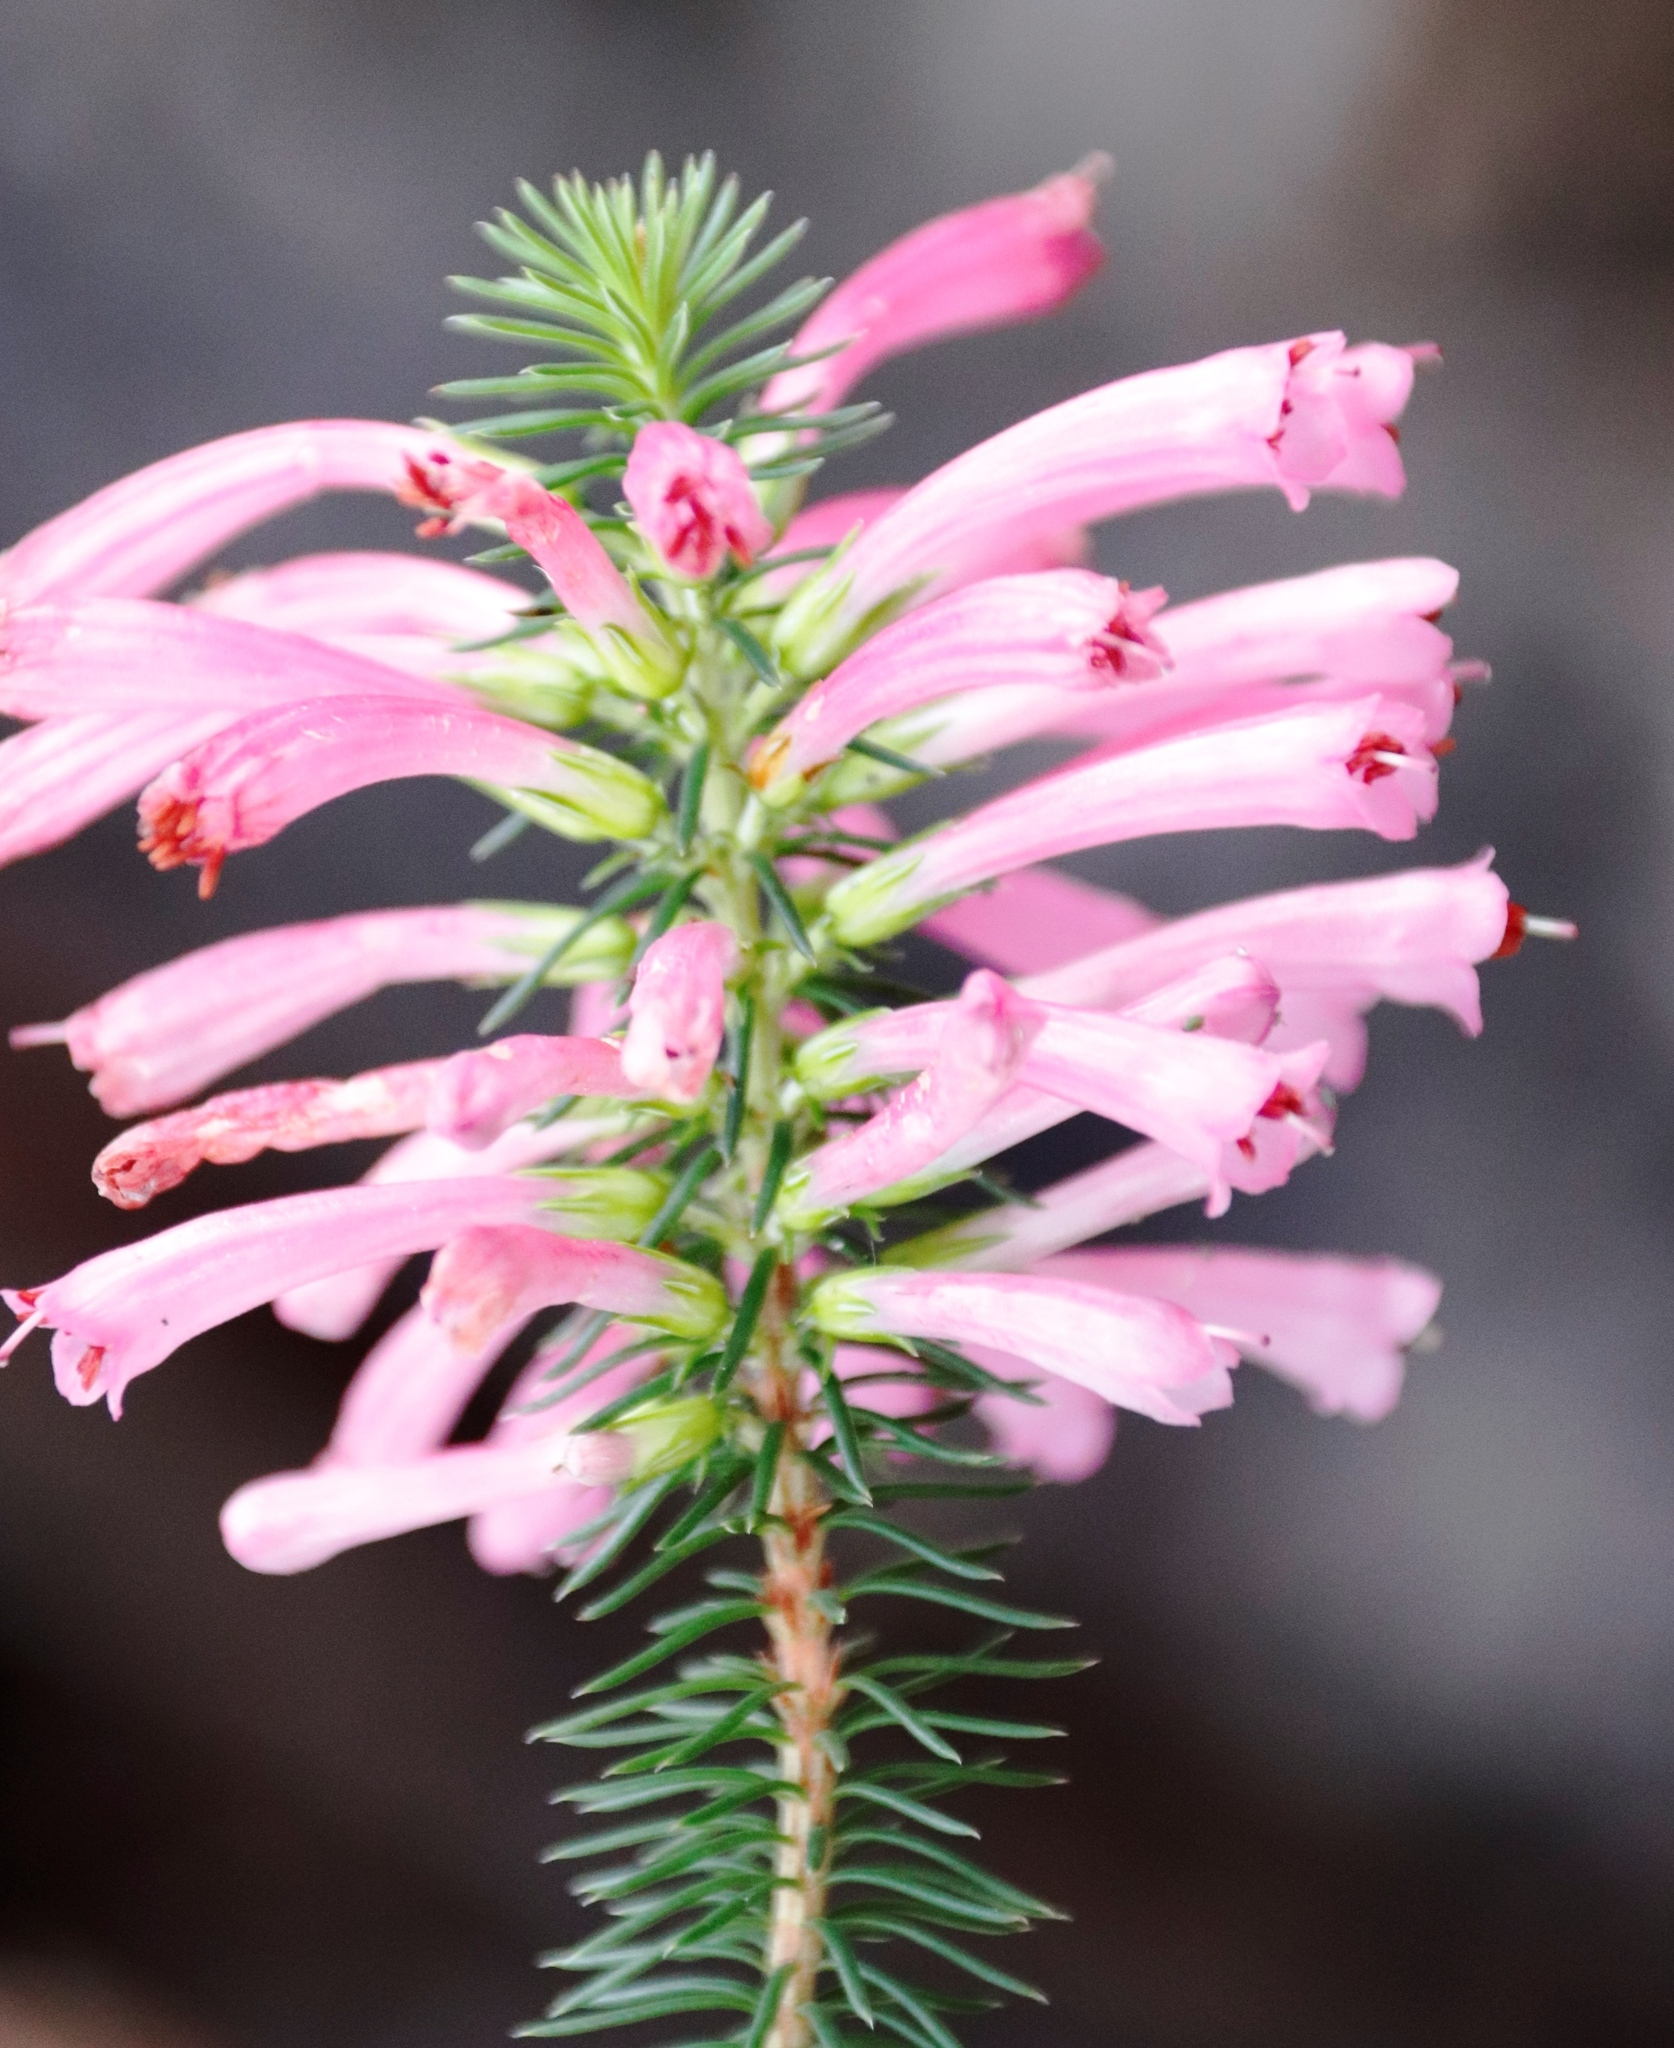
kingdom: Plantae
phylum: Tracheophyta
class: Magnoliopsida
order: Ericales
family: Ericaceae
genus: Erica
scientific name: Erica abietina
